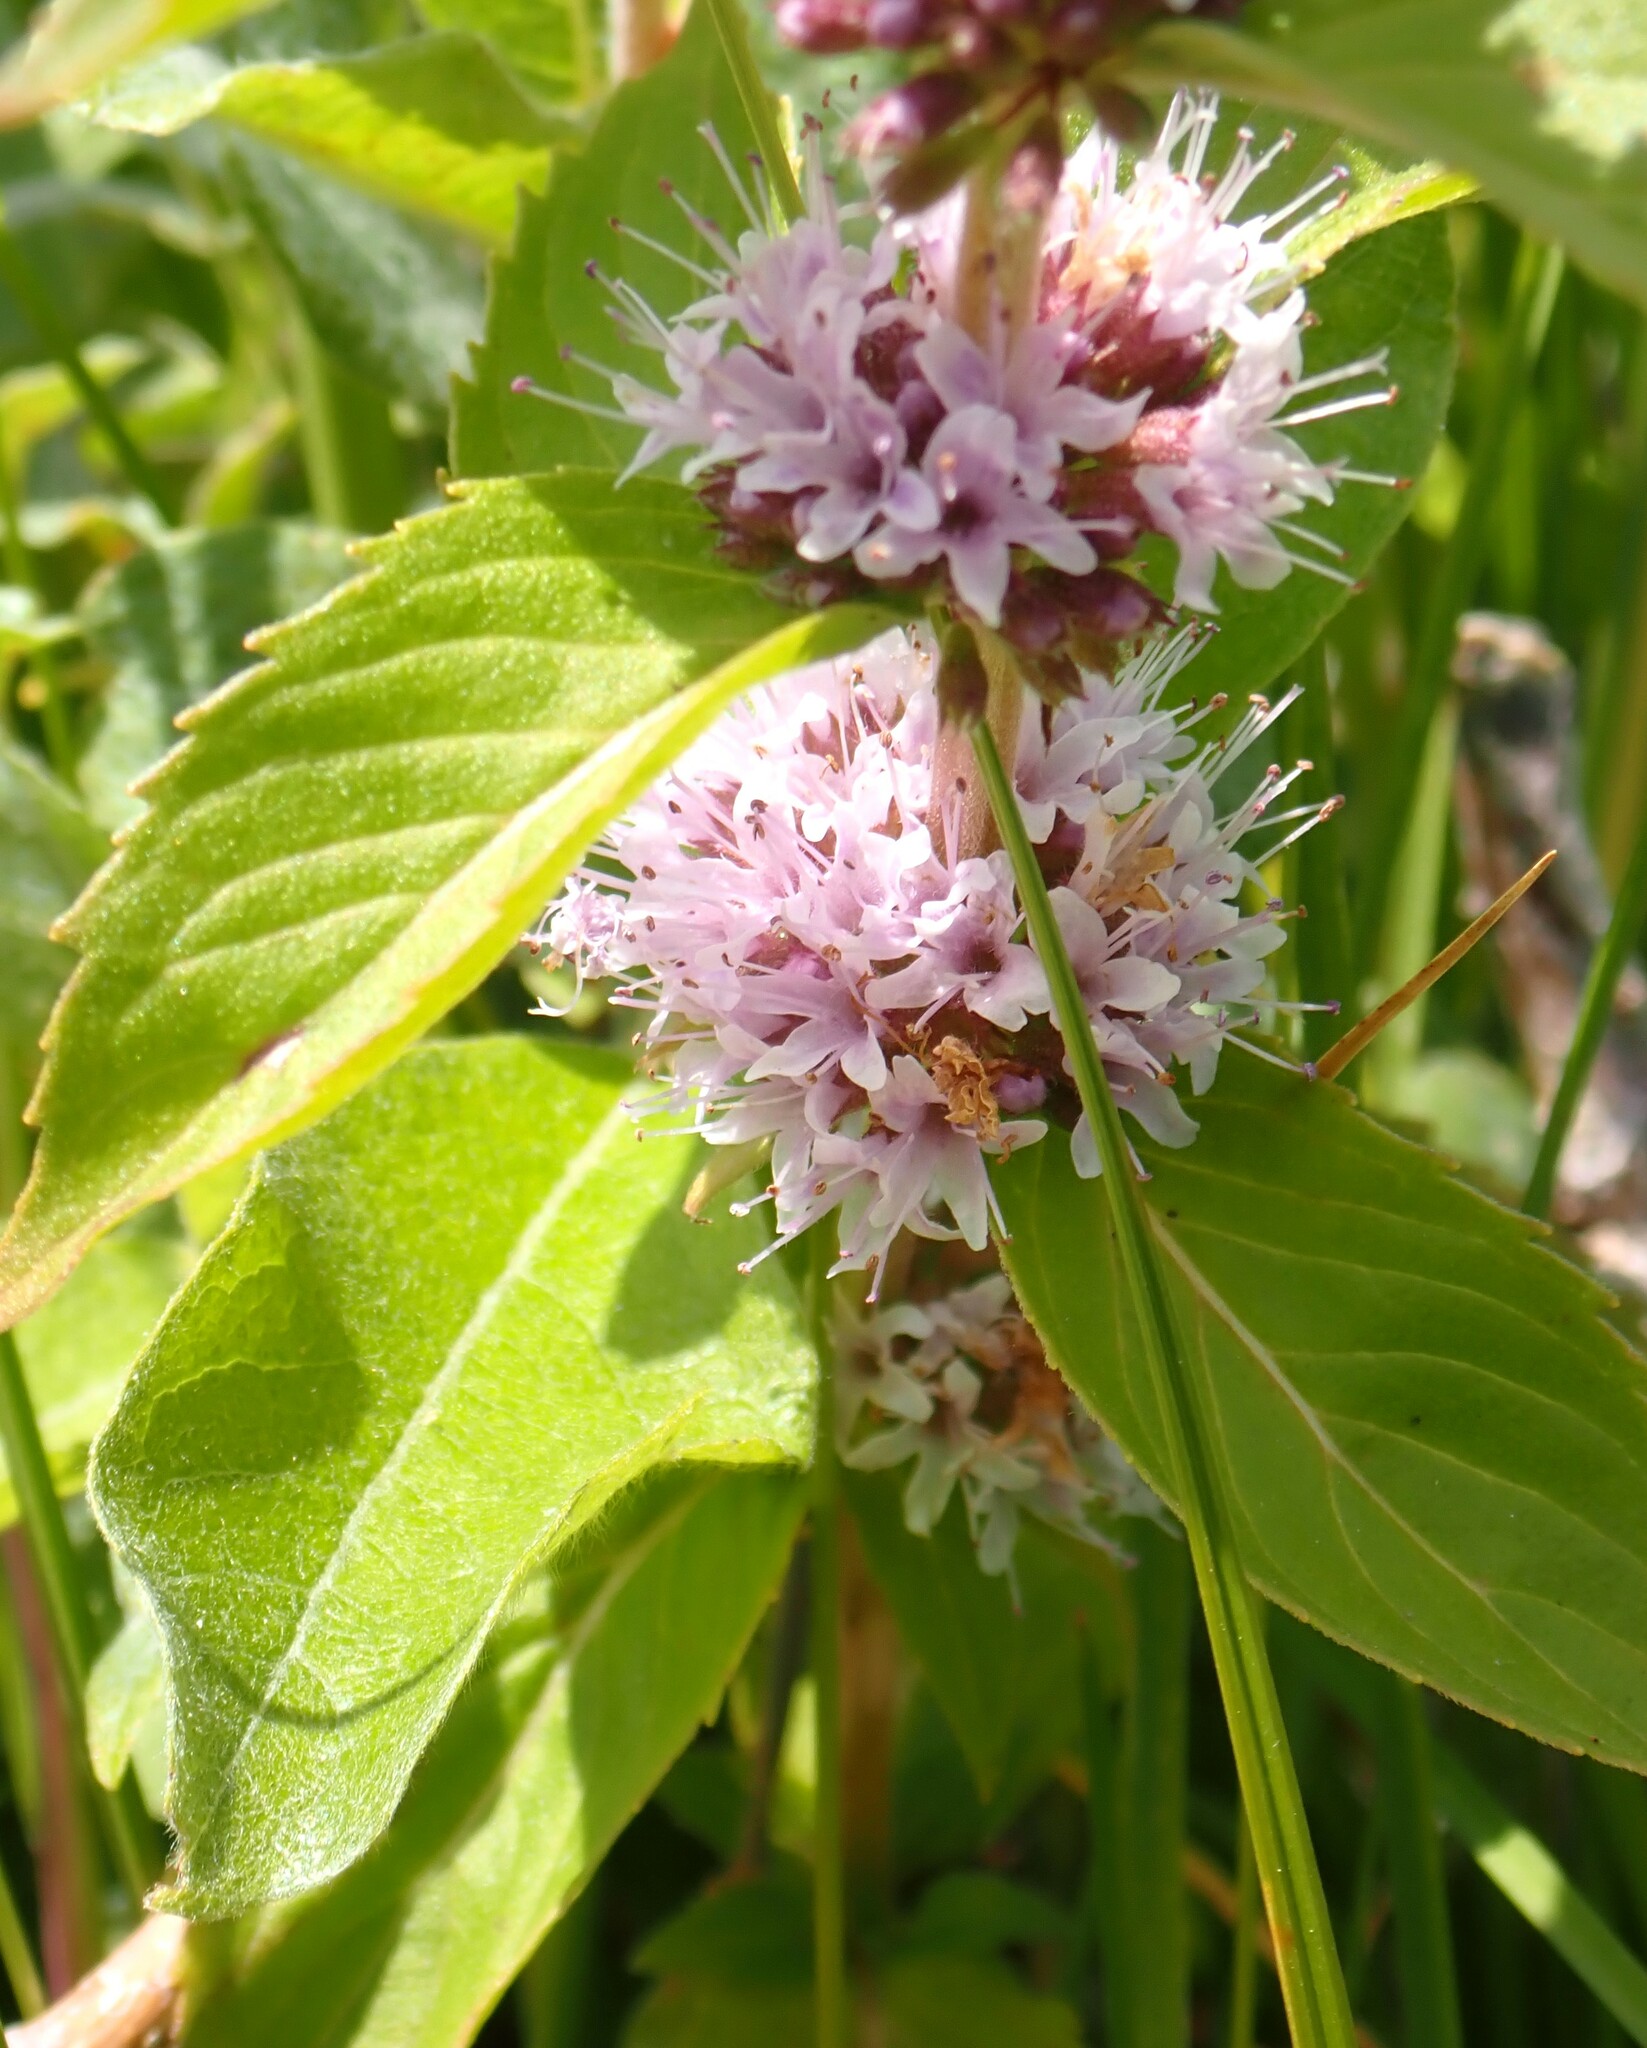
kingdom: Plantae
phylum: Tracheophyta
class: Magnoliopsida
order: Lamiales
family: Lamiaceae
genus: Mentha
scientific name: Mentha canadensis
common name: American corn mint
